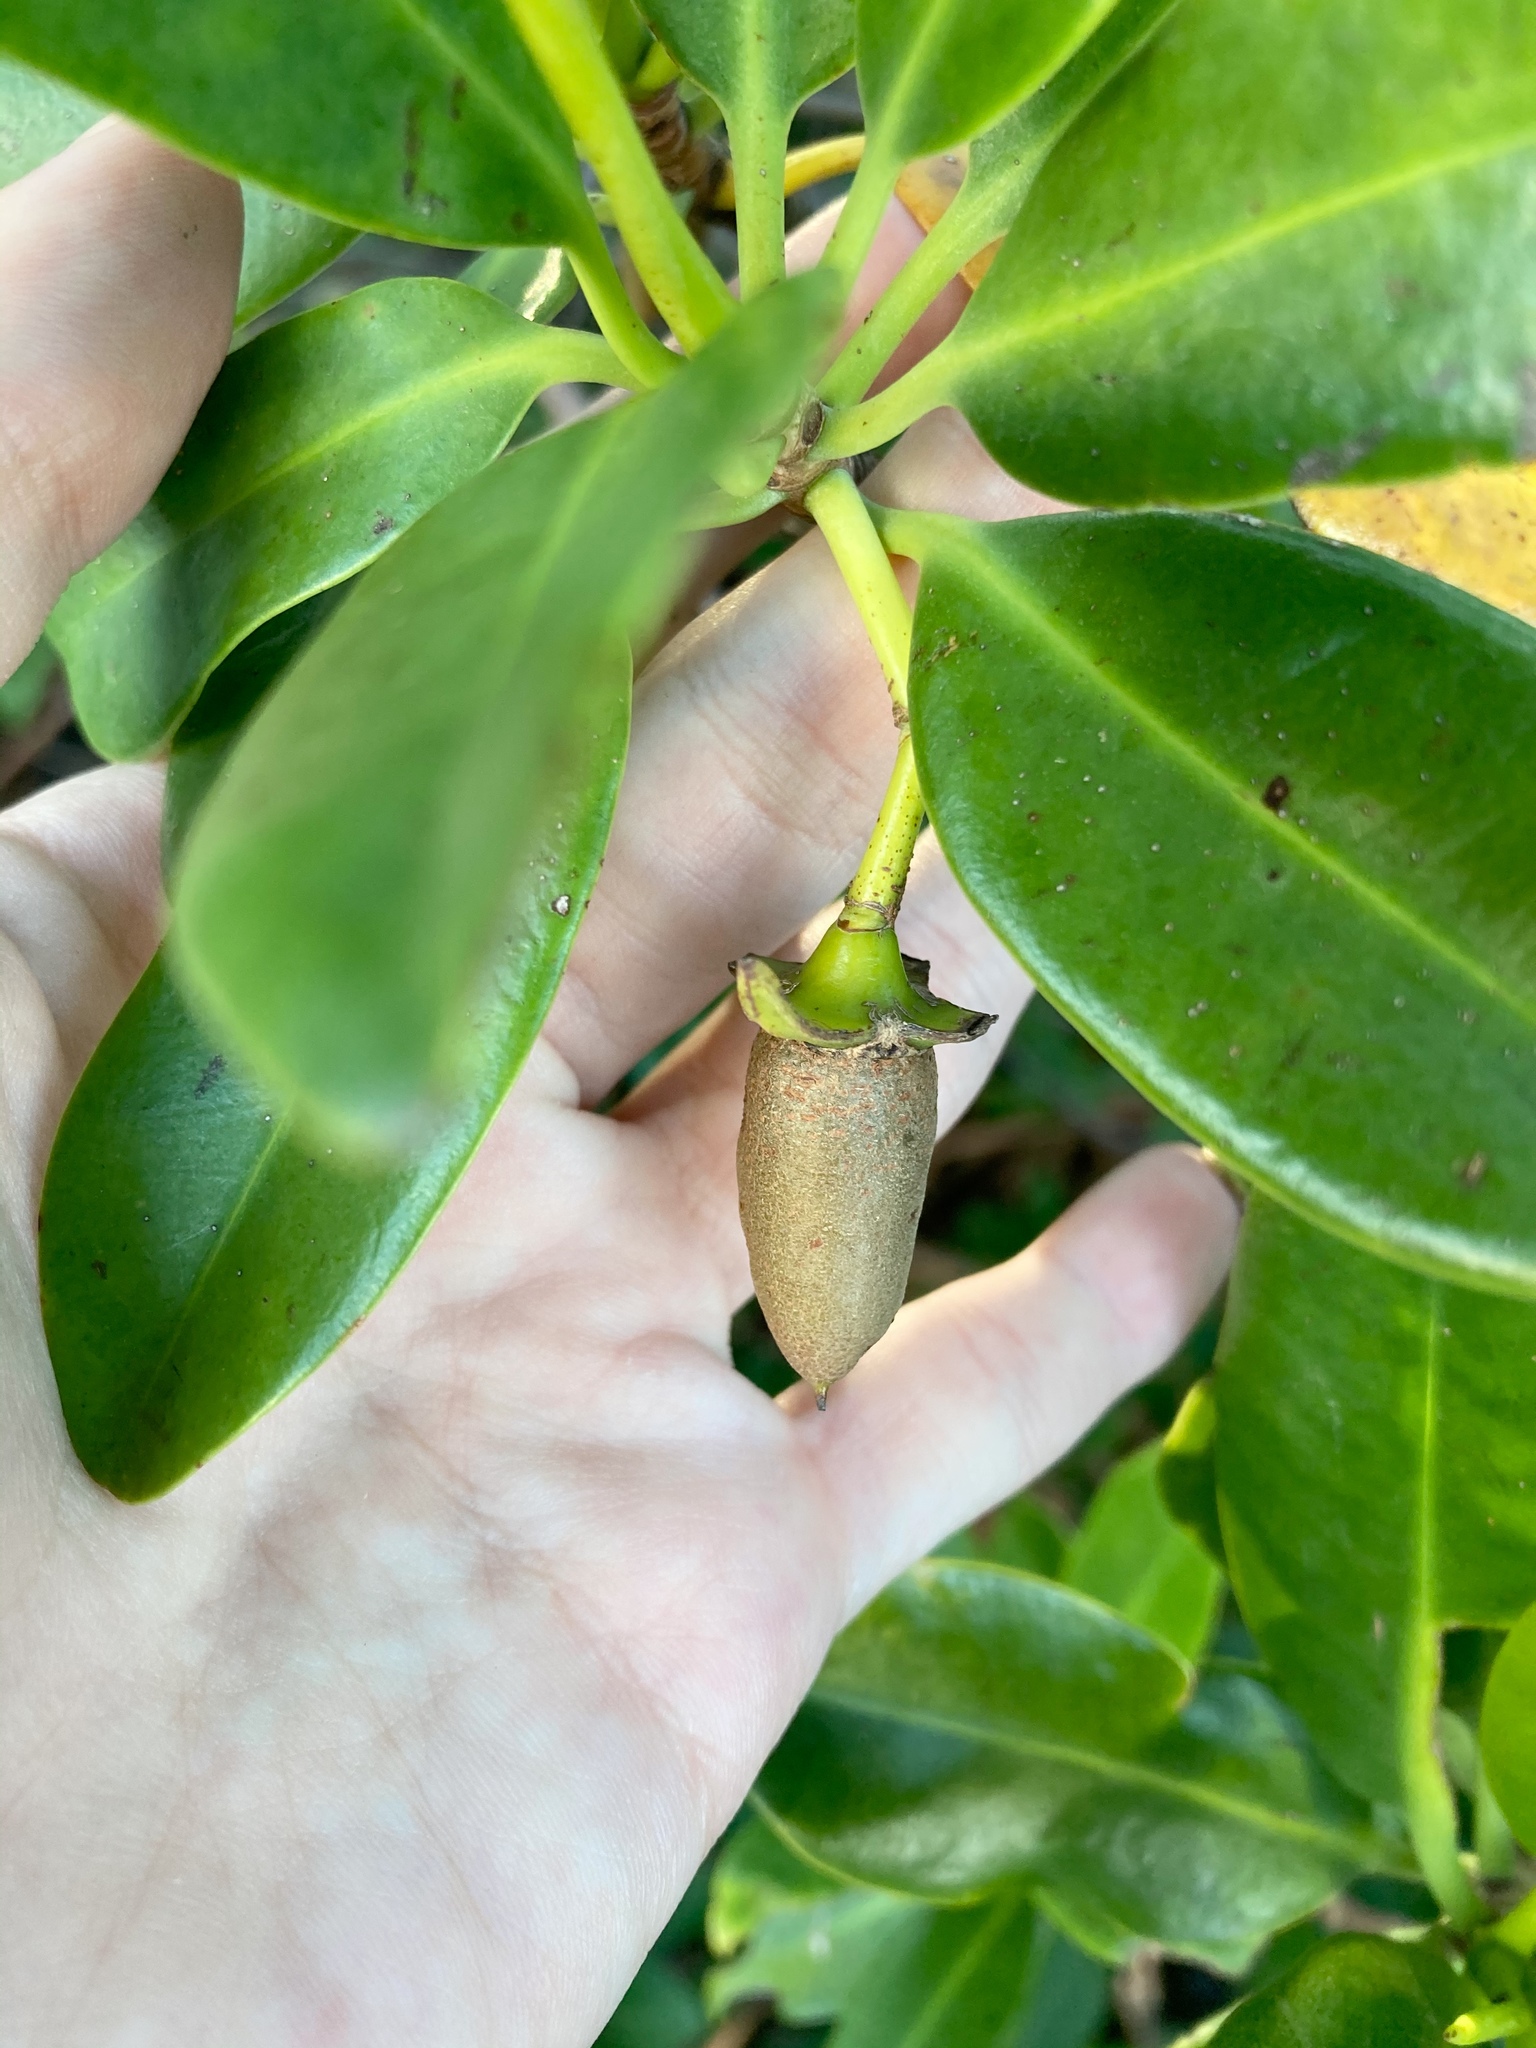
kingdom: Plantae
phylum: Tracheophyta
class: Magnoliopsida
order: Malpighiales
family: Rhizophoraceae
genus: Rhizophora
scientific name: Rhizophora mangle
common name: Red mangrove
